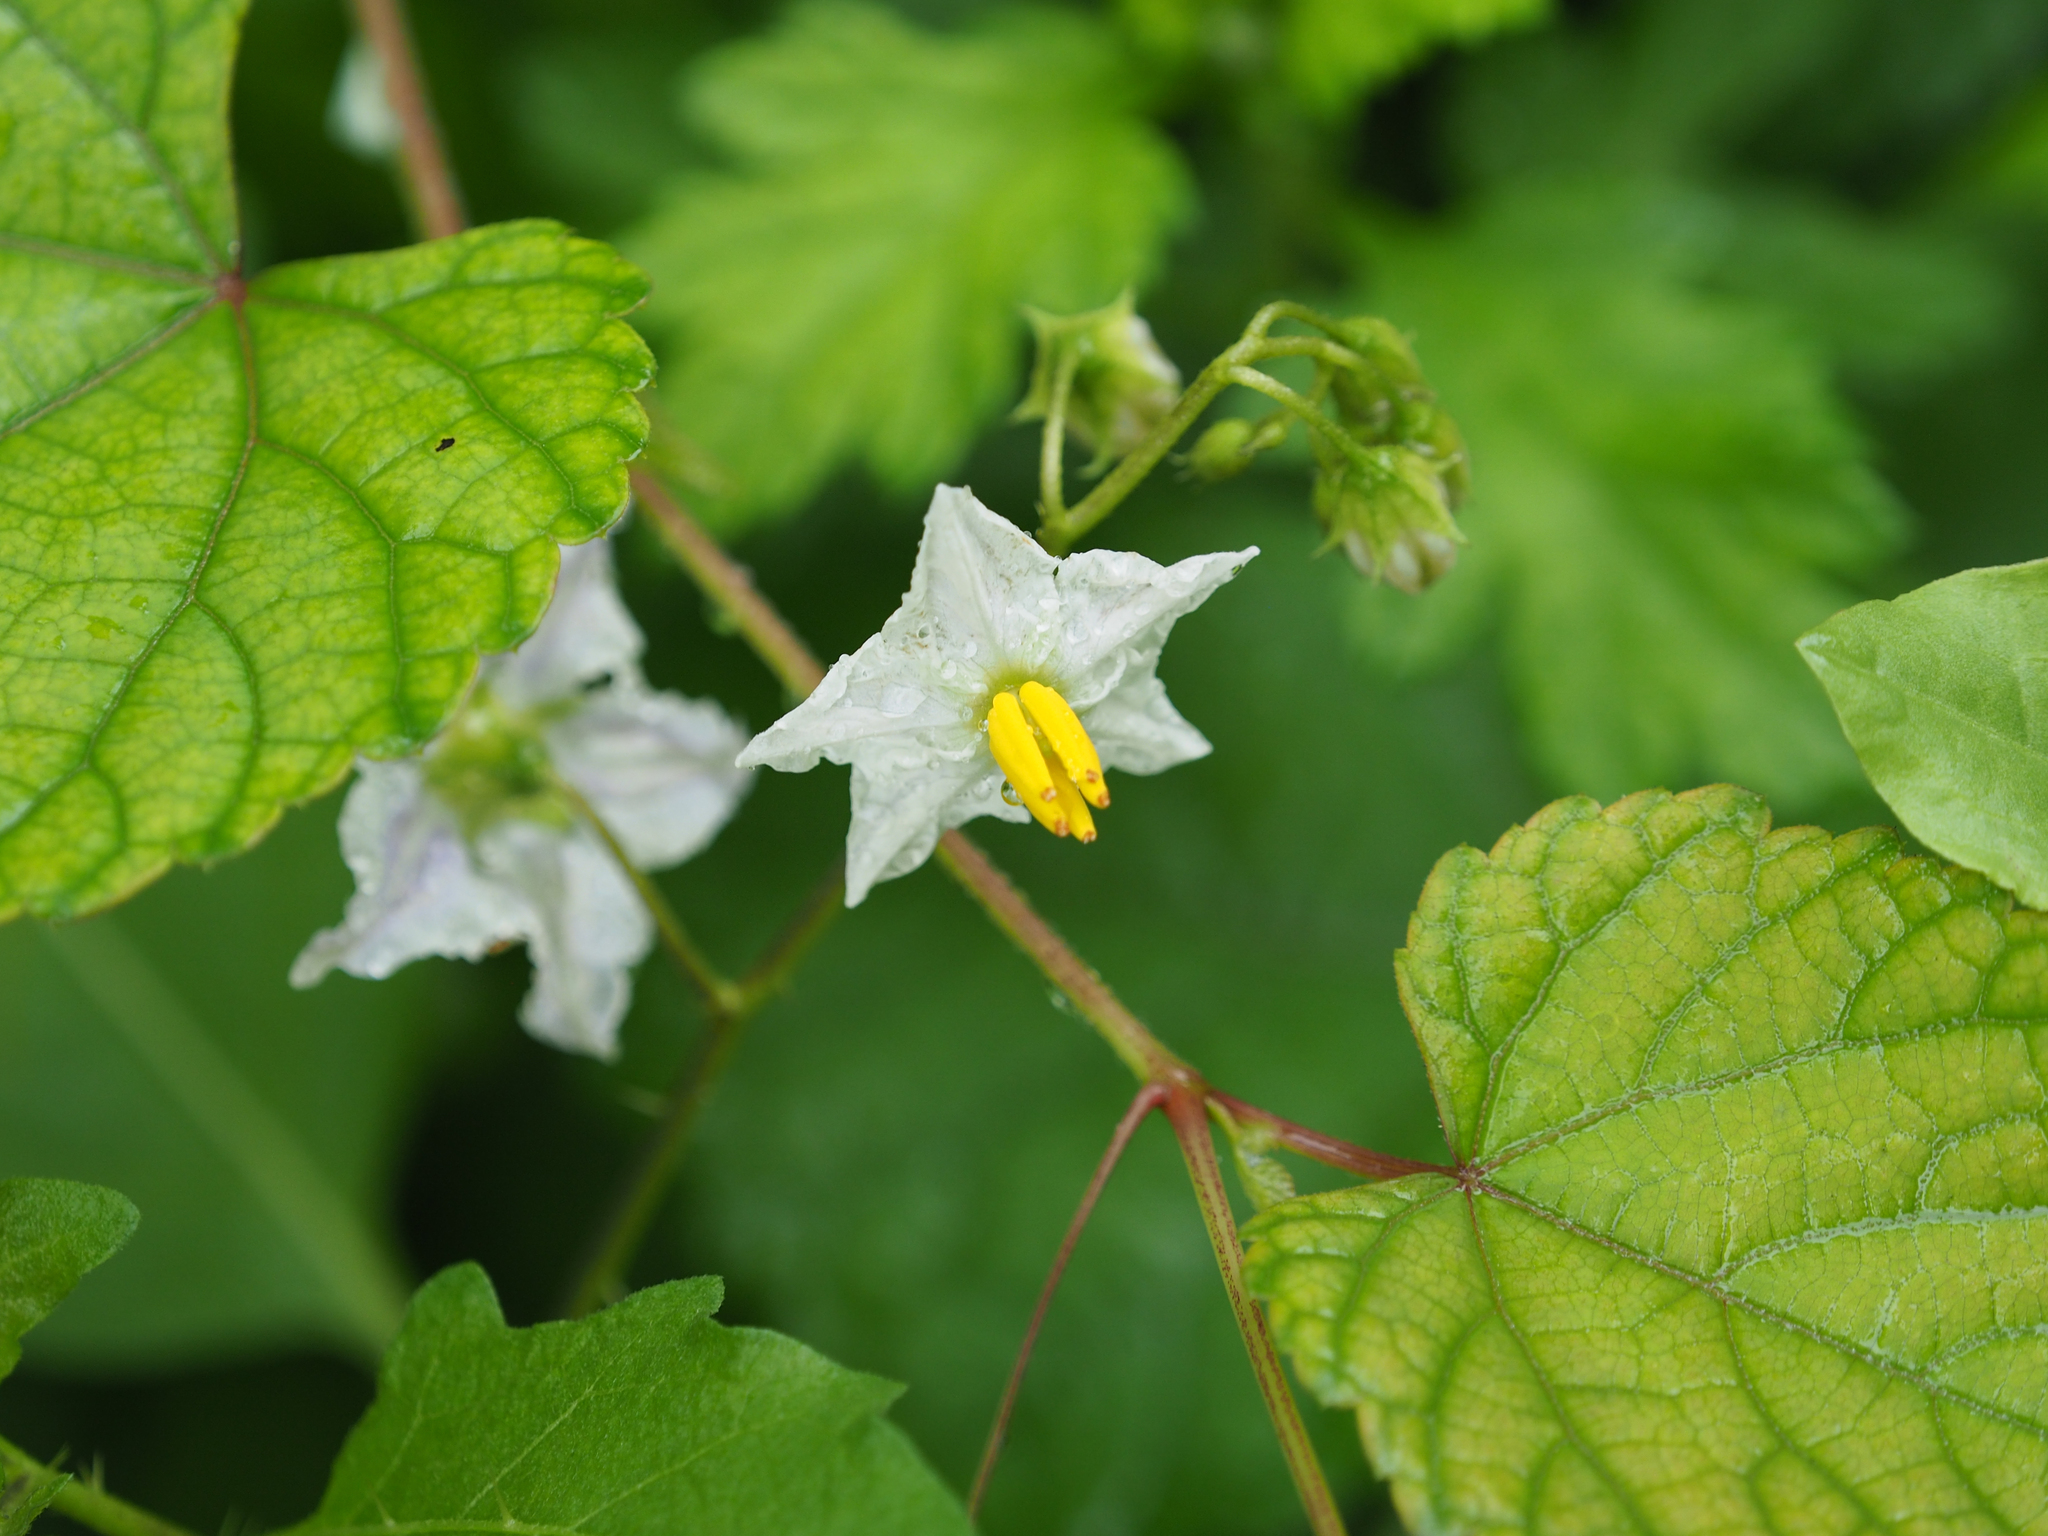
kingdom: Plantae
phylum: Tracheophyta
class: Magnoliopsida
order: Solanales
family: Solanaceae
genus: Solanum
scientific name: Solanum carolinense
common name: Horse-nettle
